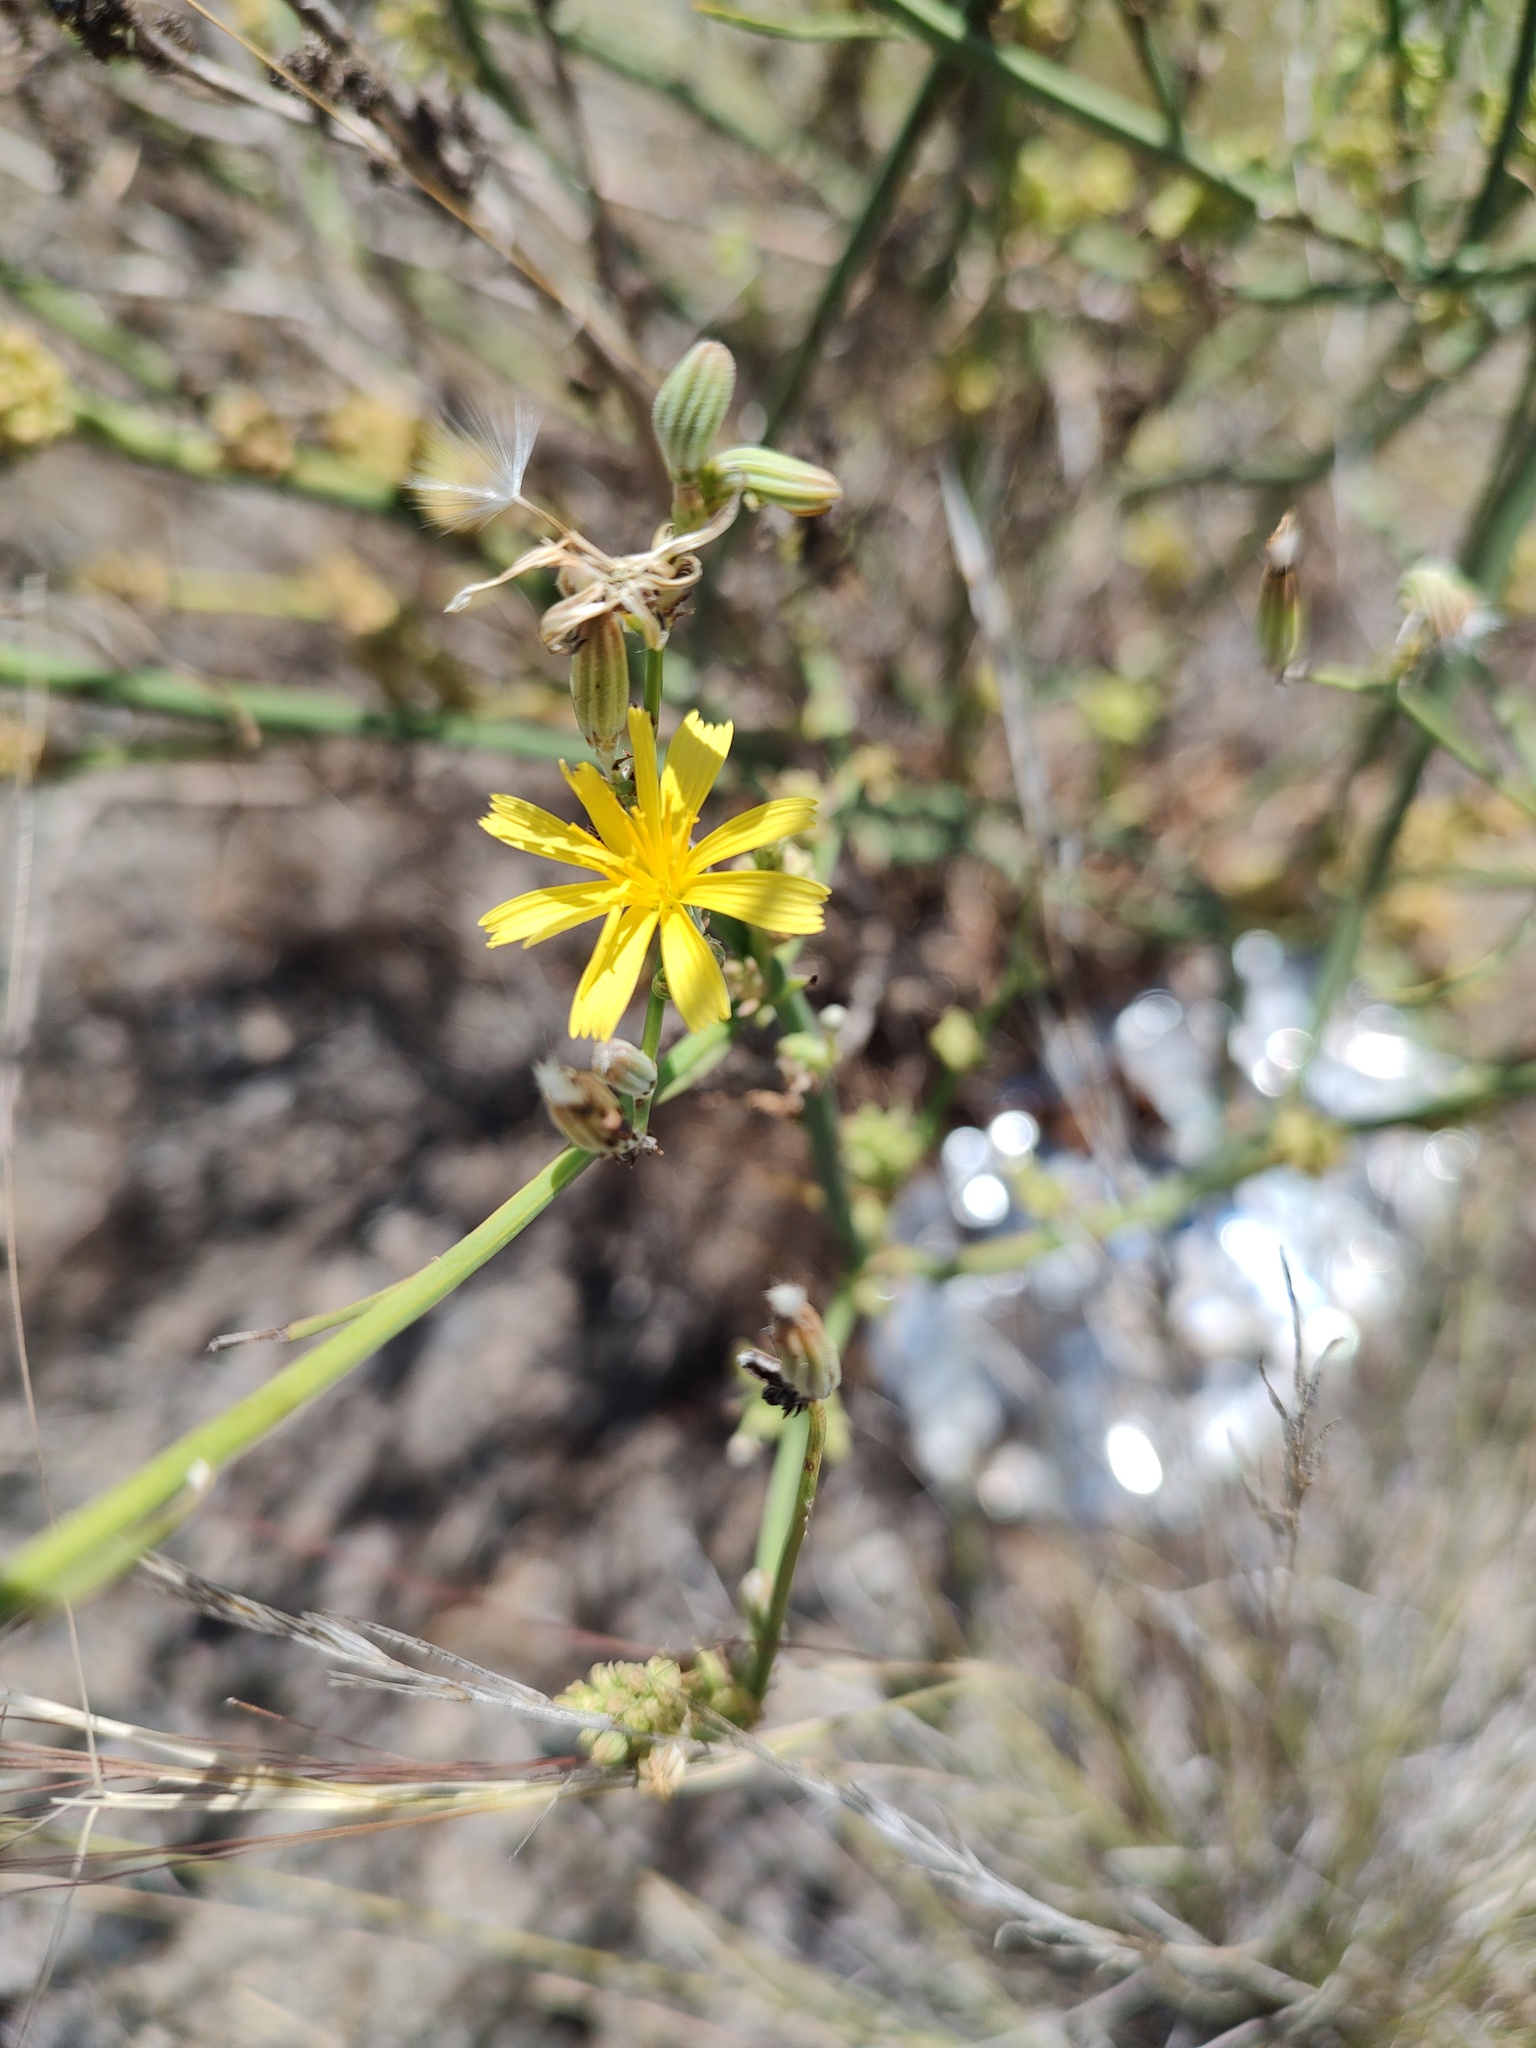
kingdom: Plantae
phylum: Tracheophyta
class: Magnoliopsida
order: Asterales
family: Asteraceae
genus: Chondrilla
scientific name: Chondrilla juncea
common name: Skeleton weed
